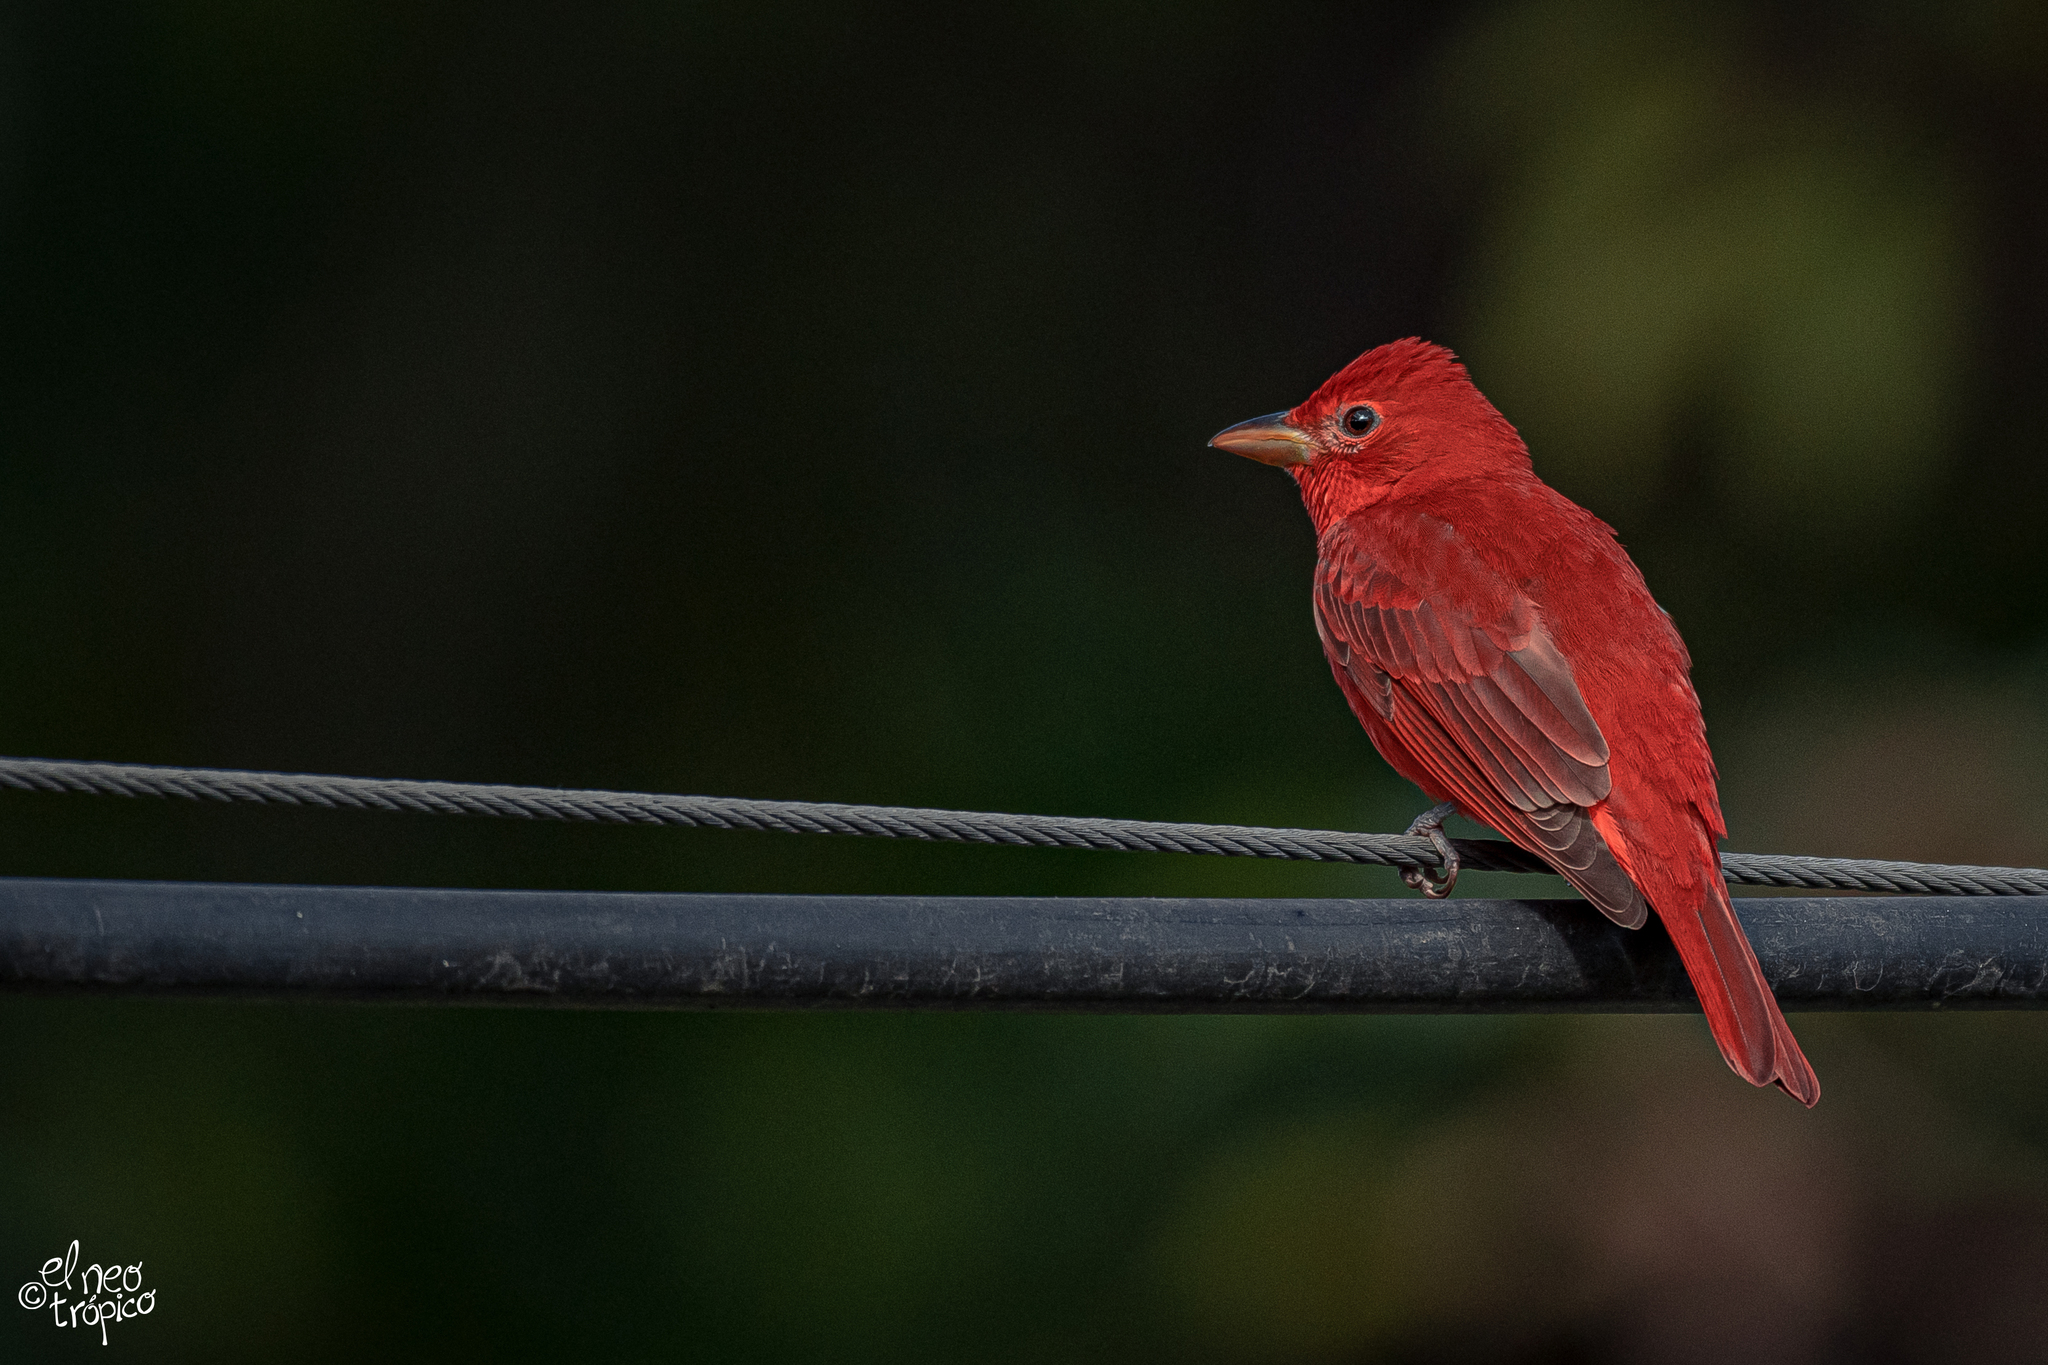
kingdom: Animalia
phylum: Chordata
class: Aves
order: Passeriformes
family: Cardinalidae
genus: Piranga
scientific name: Piranga rubra
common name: Summer tanager
